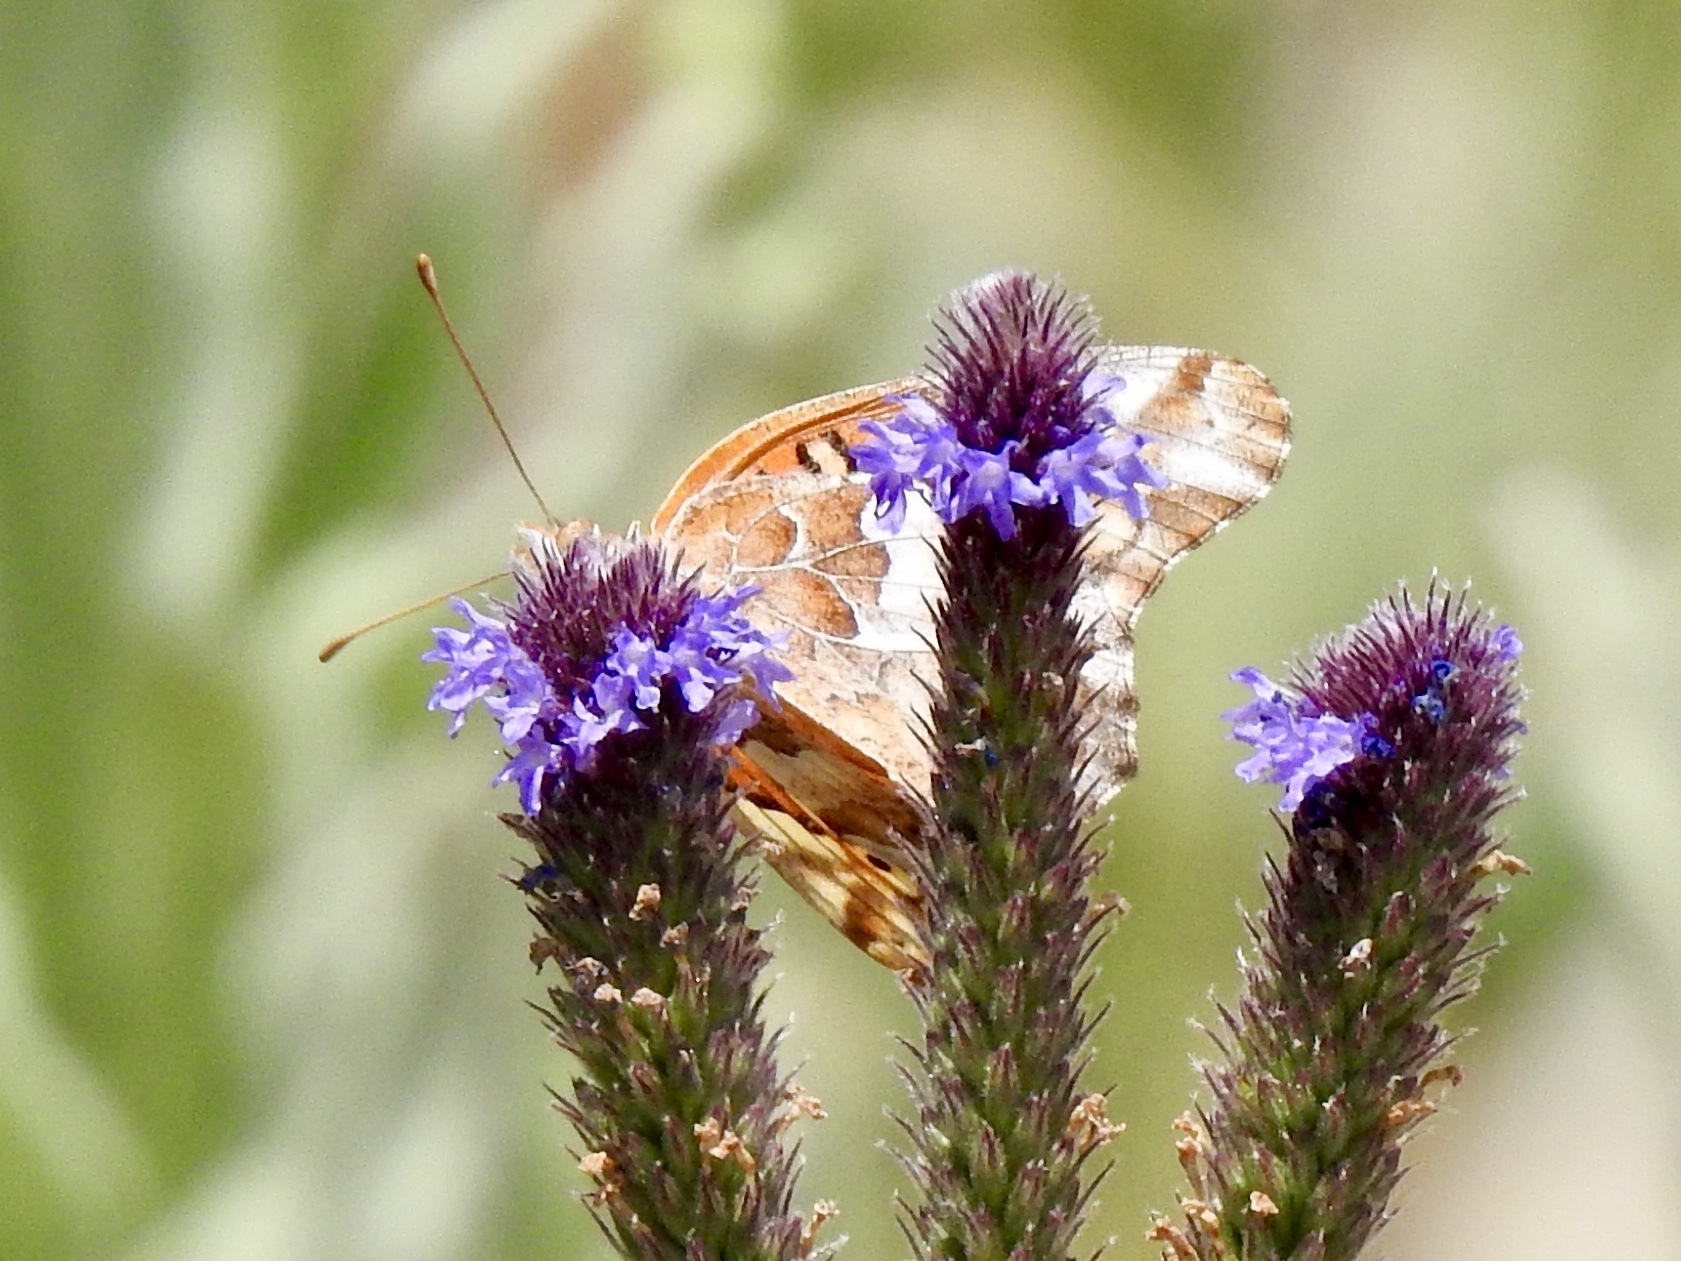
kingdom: Animalia
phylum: Arthropoda
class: Insecta
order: Lepidoptera
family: Nymphalidae
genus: Euptoieta
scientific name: Euptoieta claudia
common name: Variegated fritillary
